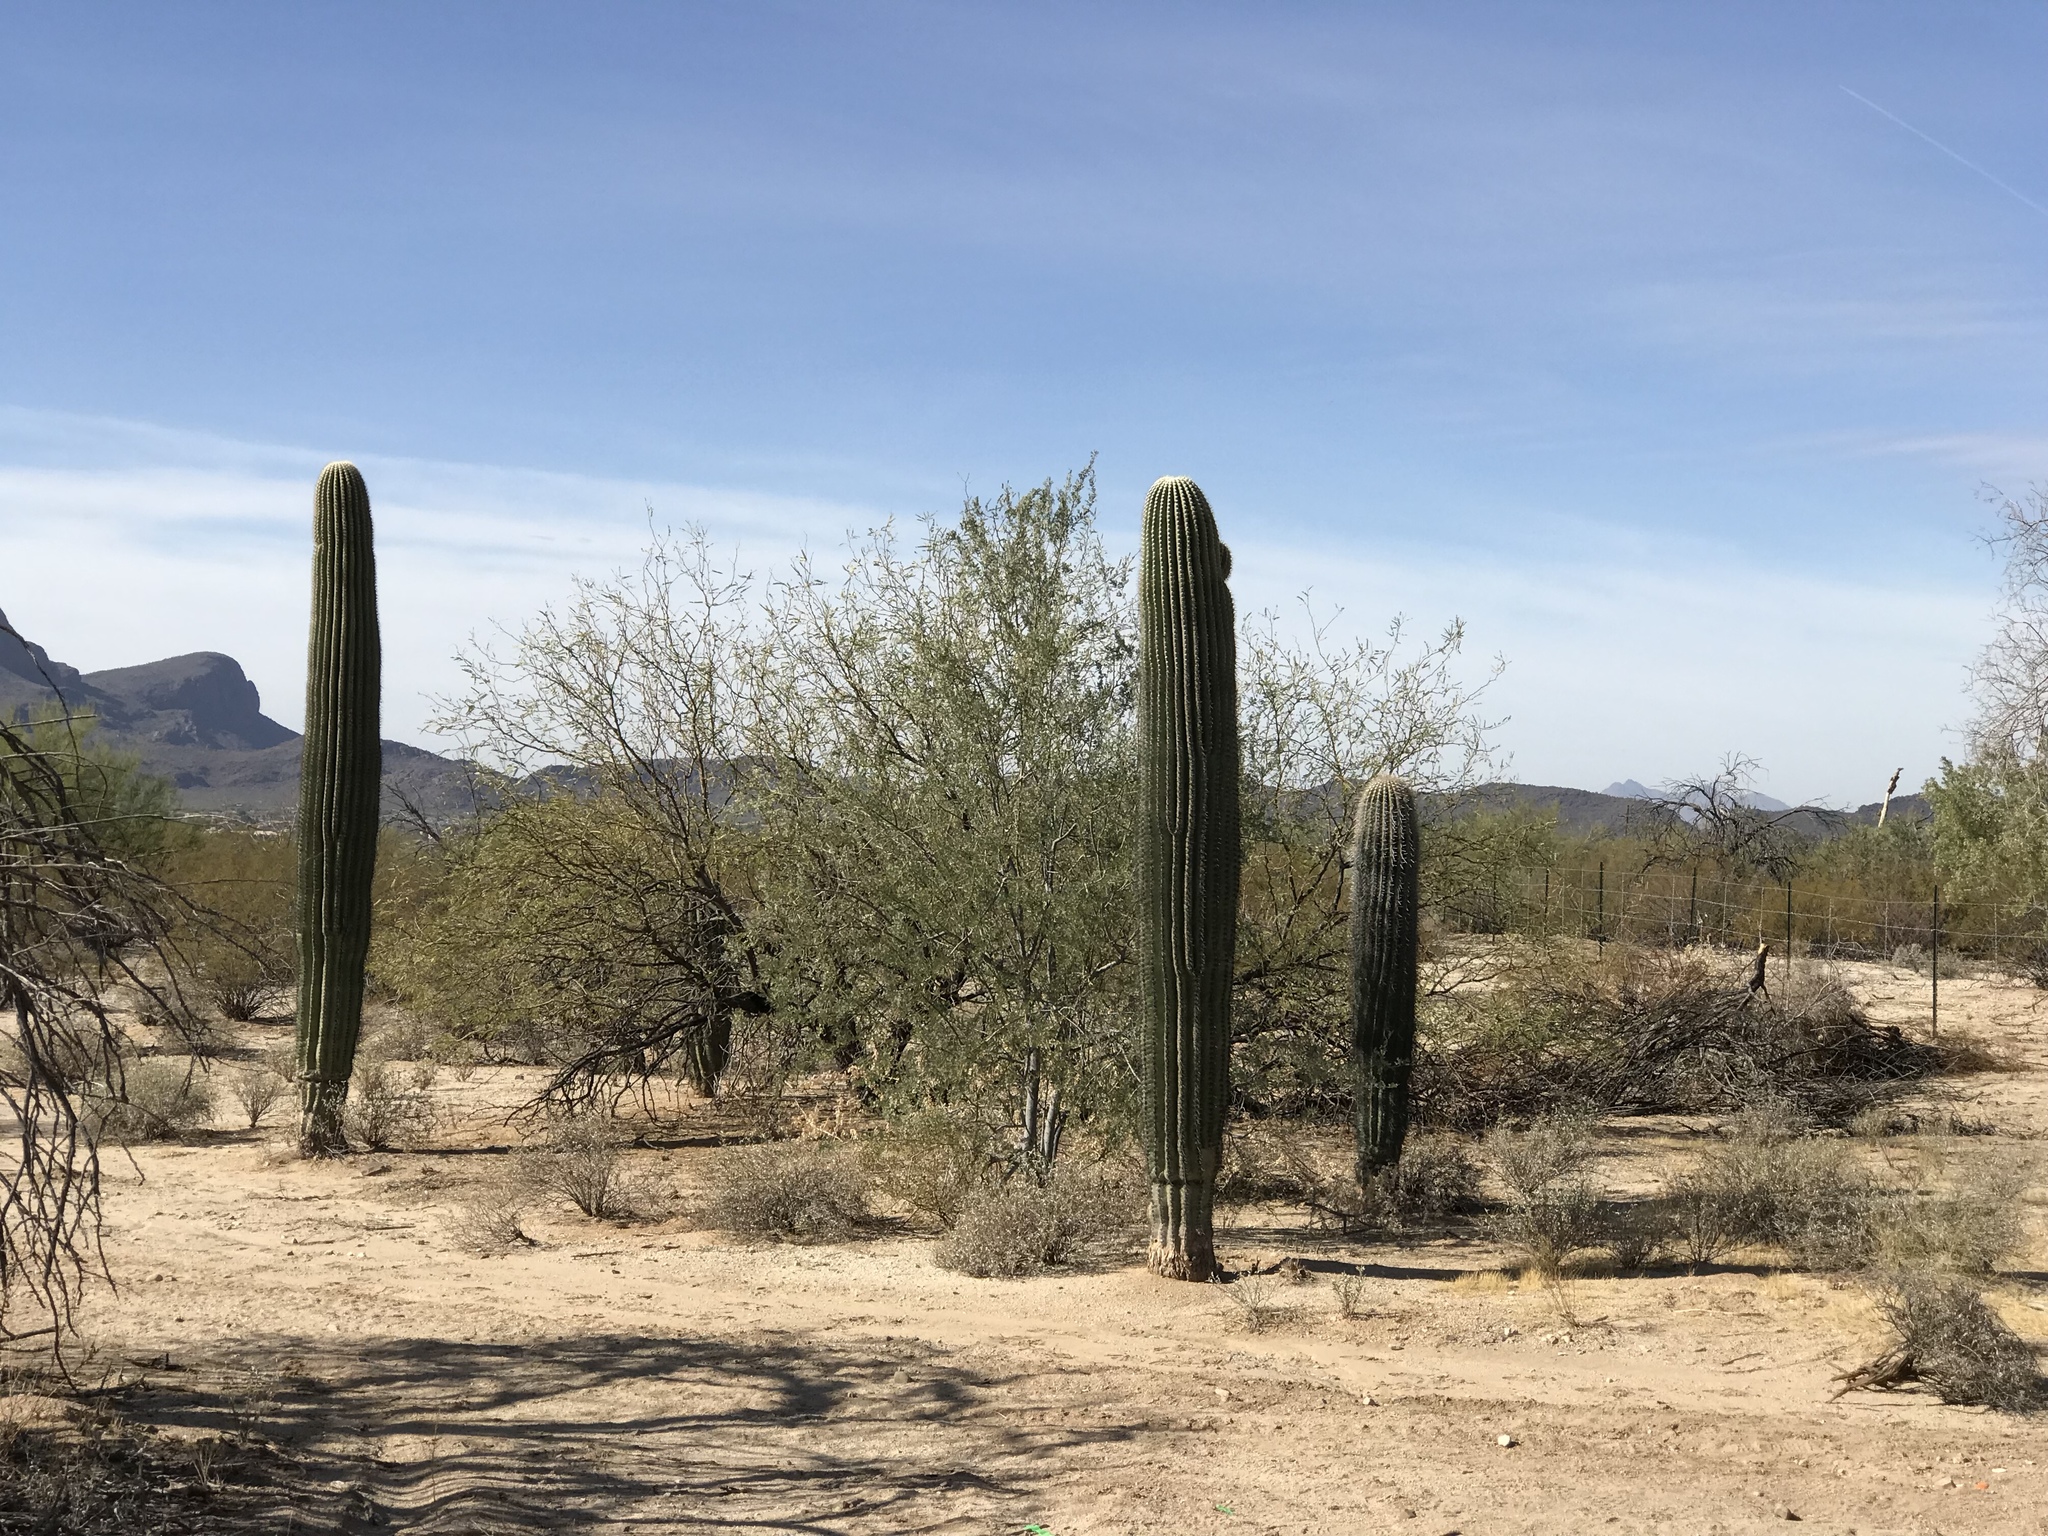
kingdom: Plantae
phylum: Tracheophyta
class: Magnoliopsida
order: Caryophyllales
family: Cactaceae
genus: Carnegiea
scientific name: Carnegiea gigantea
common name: Saguaro
